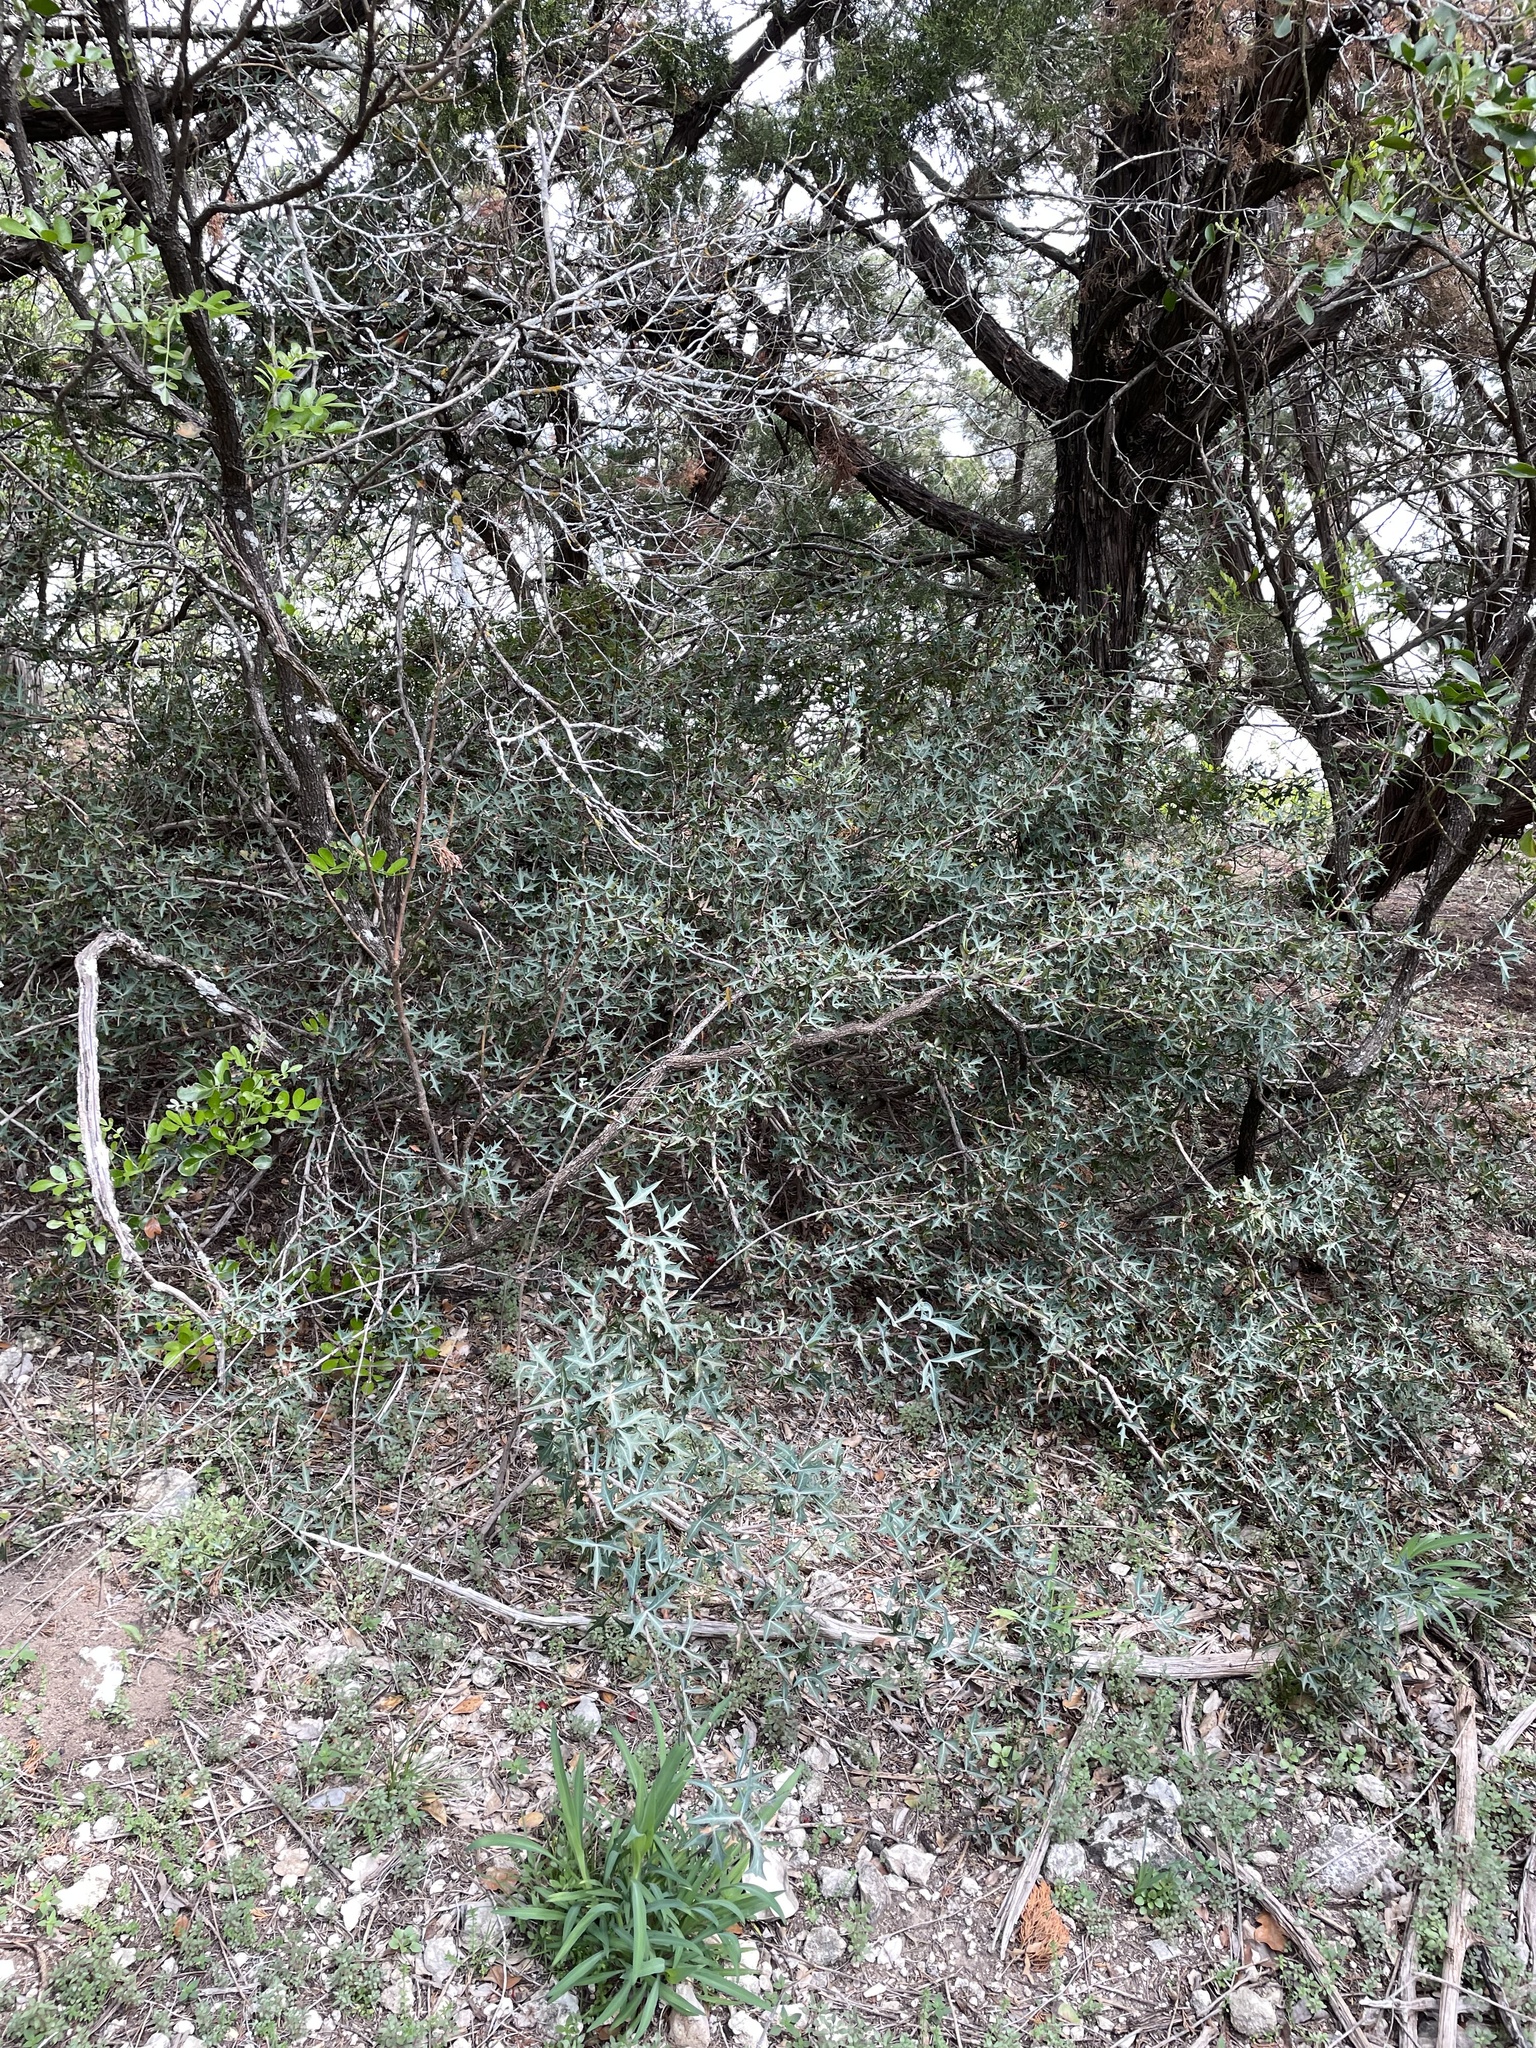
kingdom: Plantae
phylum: Tracheophyta
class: Magnoliopsida
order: Ranunculales
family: Berberidaceae
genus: Alloberberis
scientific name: Alloberberis trifoliolata
